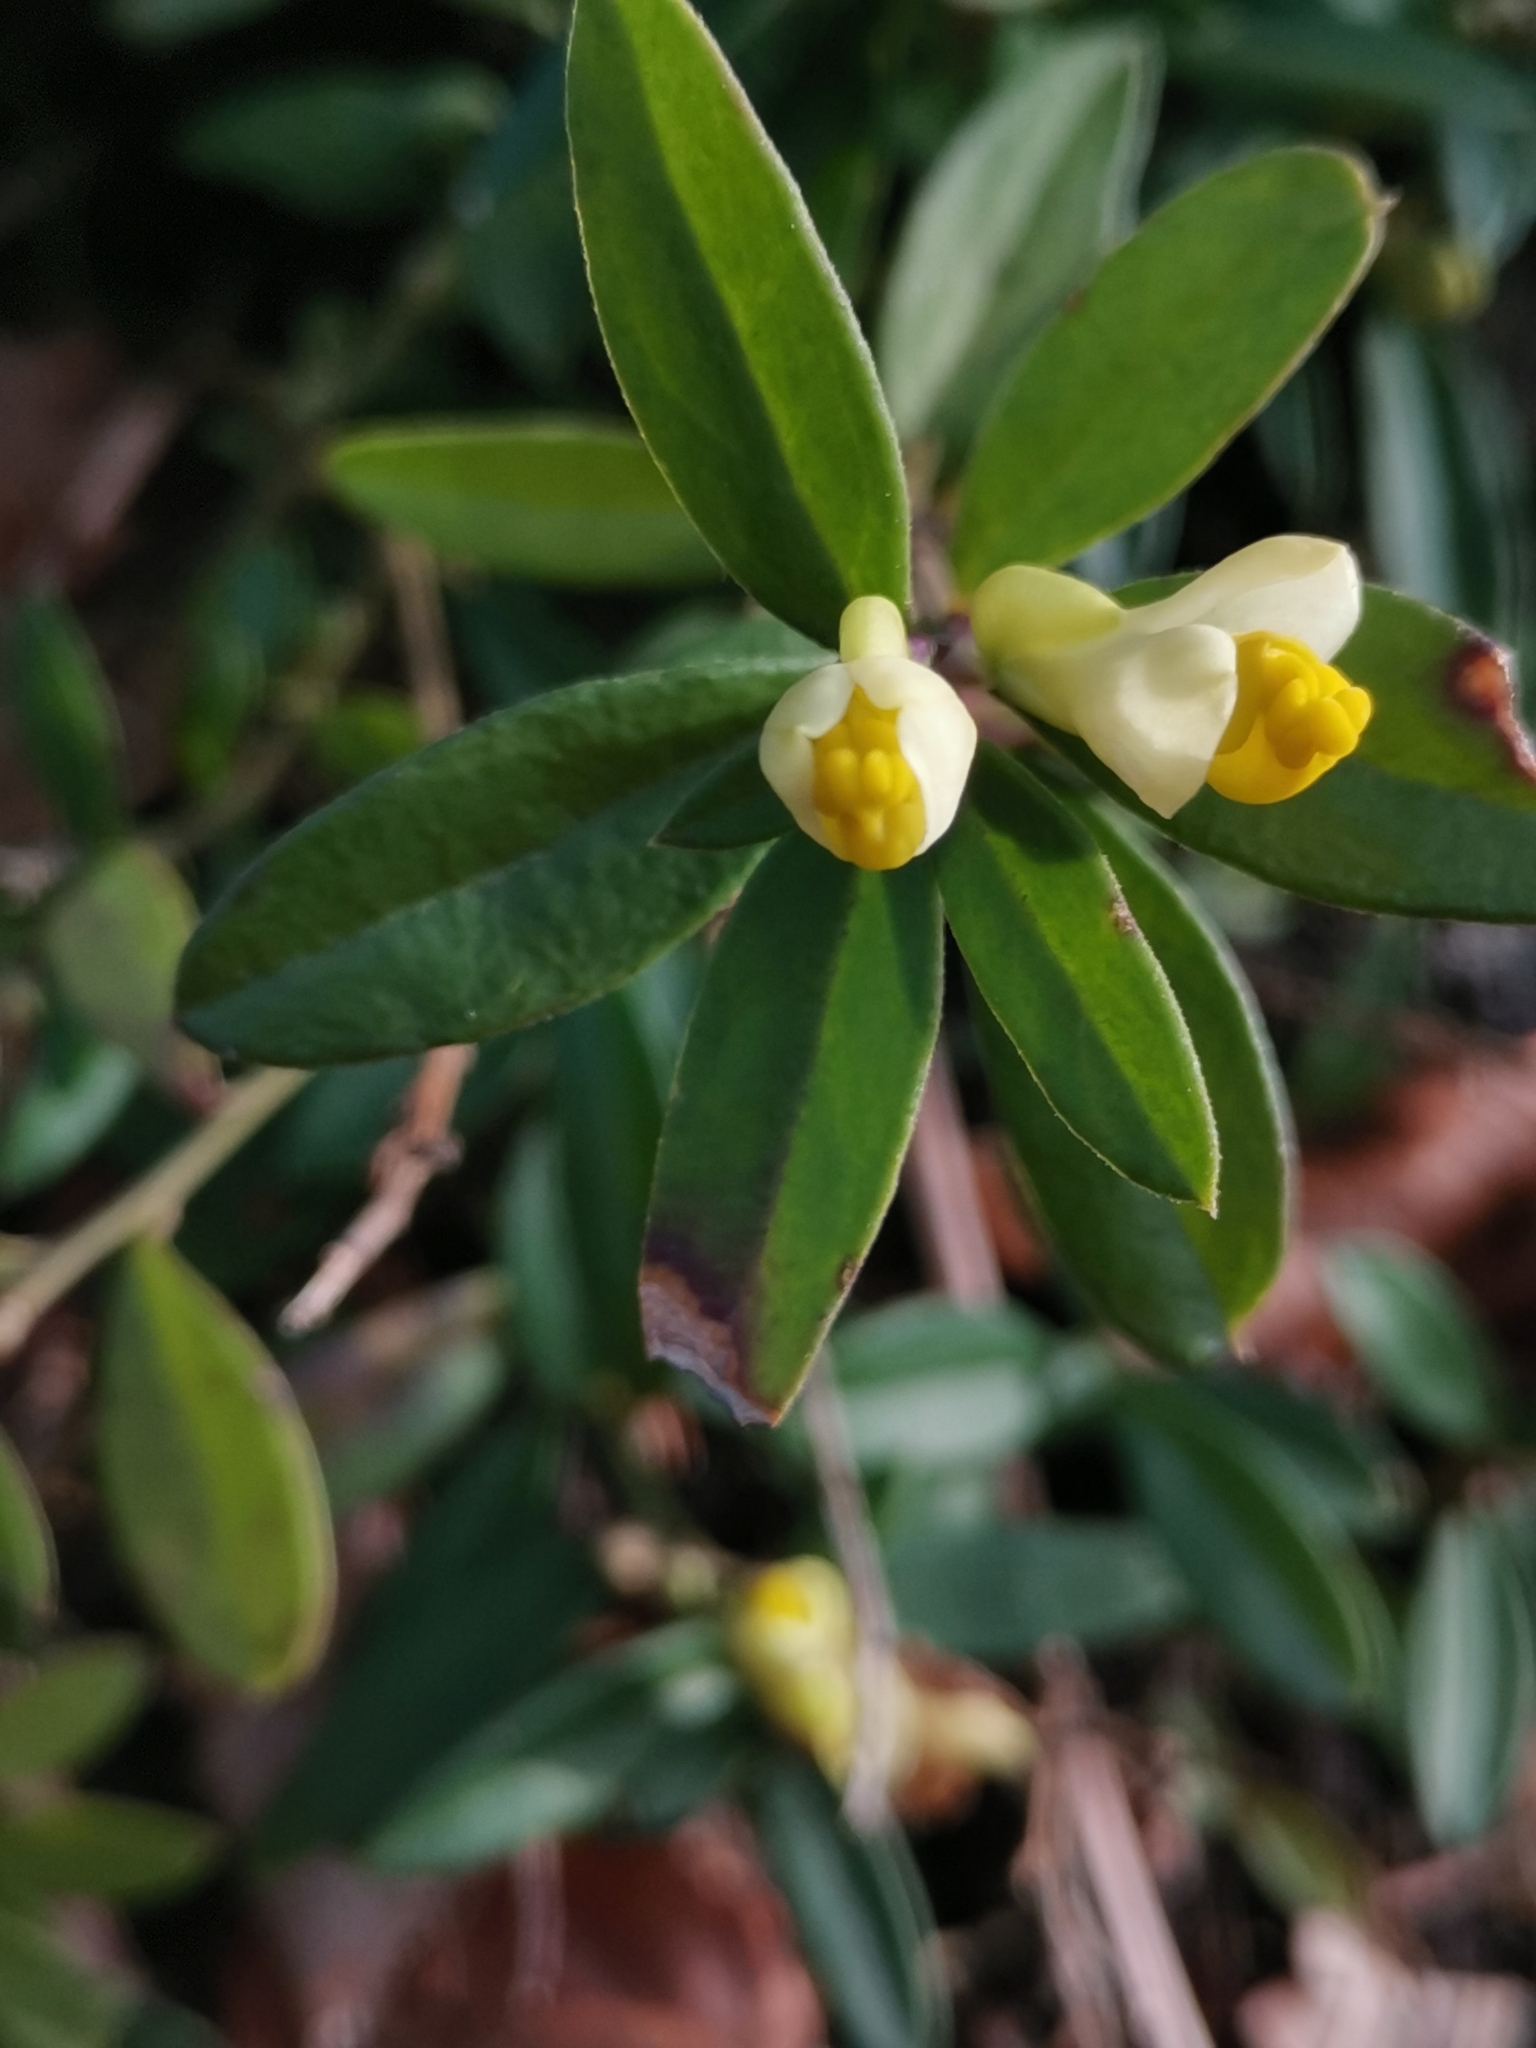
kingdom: Plantae
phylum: Tracheophyta
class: Magnoliopsida
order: Fabales
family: Polygalaceae
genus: Polygaloides
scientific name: Polygaloides chamaebuxus
